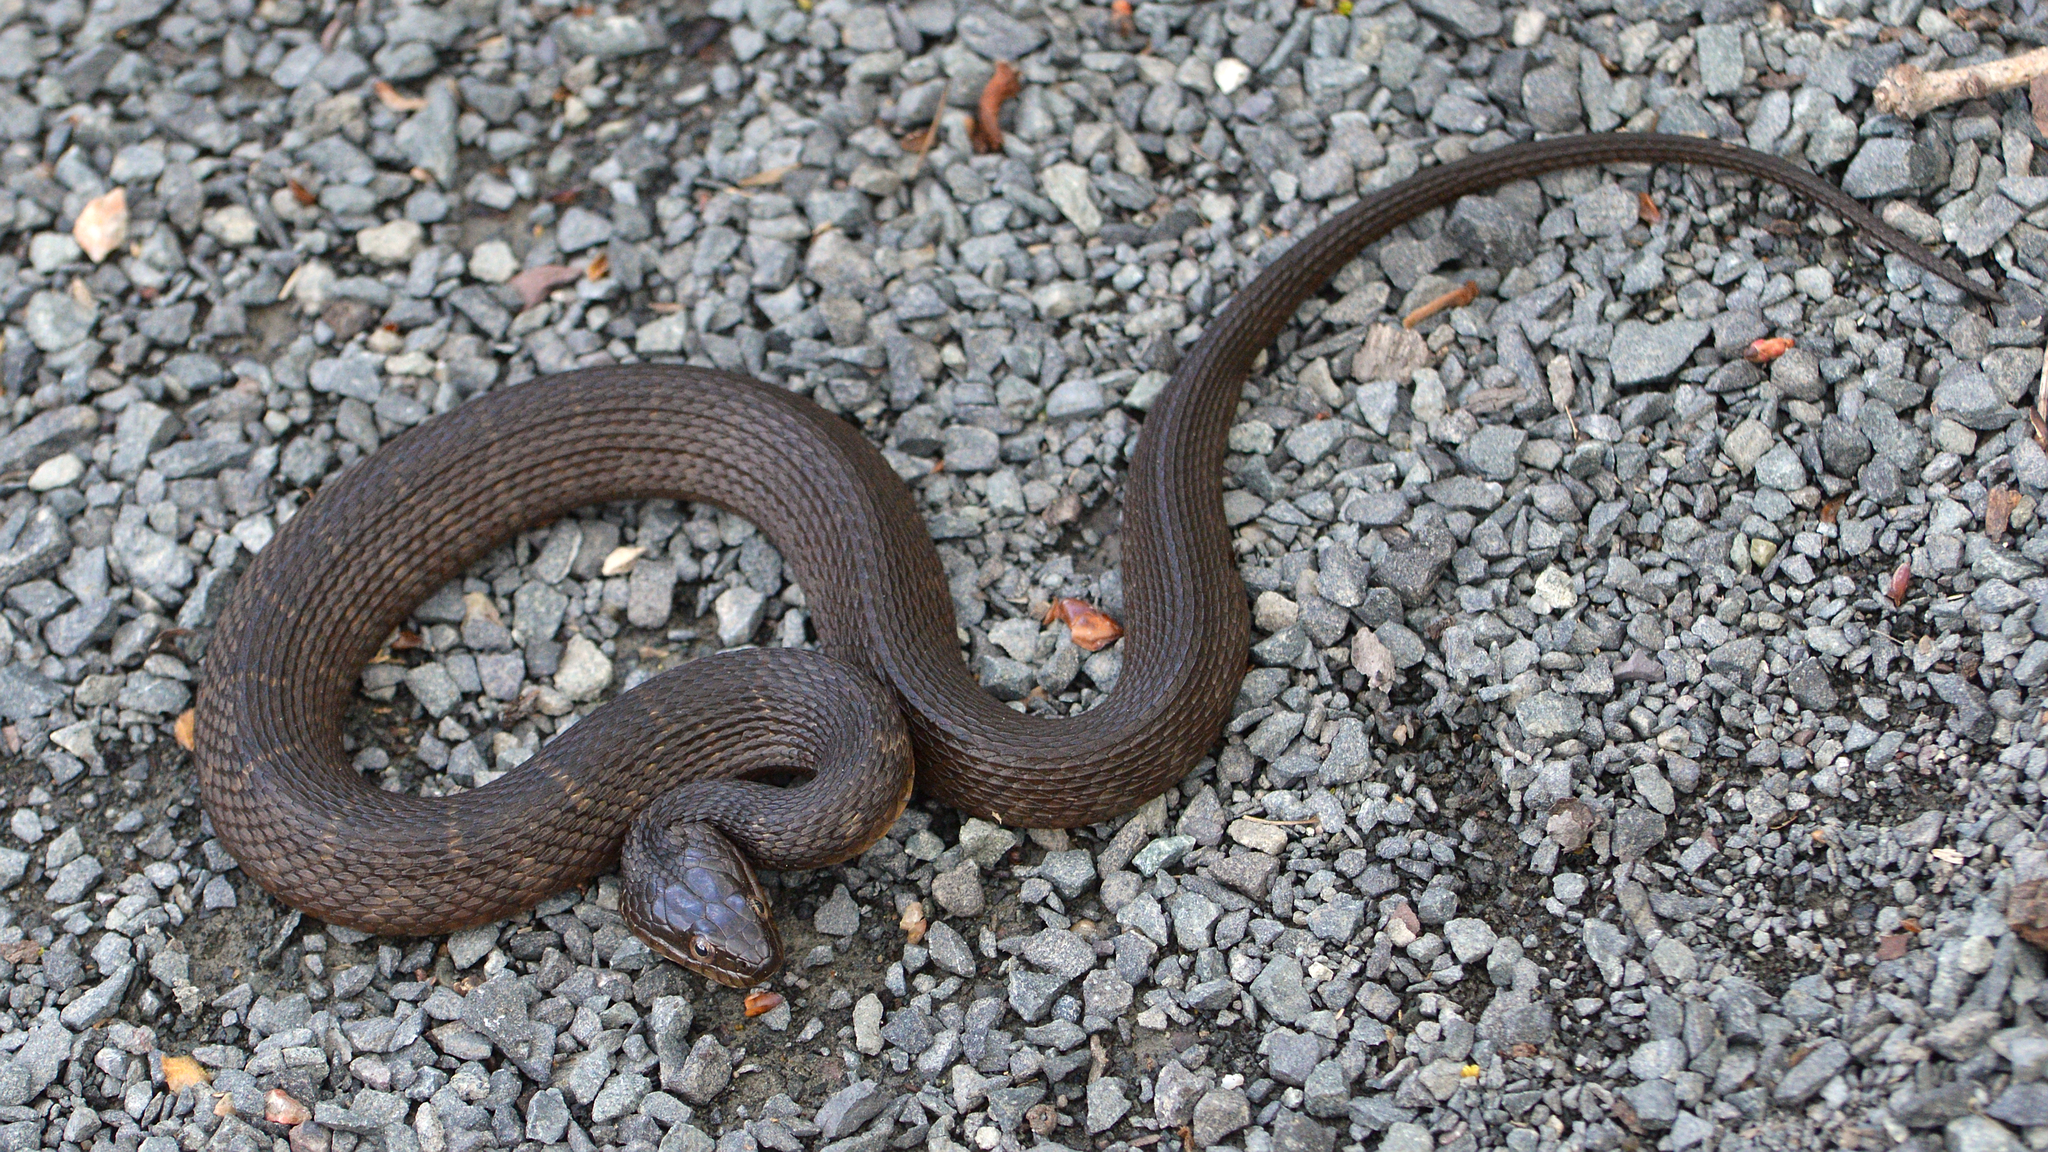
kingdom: Animalia
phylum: Chordata
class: Squamata
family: Colubridae
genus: Nerodia
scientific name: Nerodia sipedon
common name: Northern water snake
